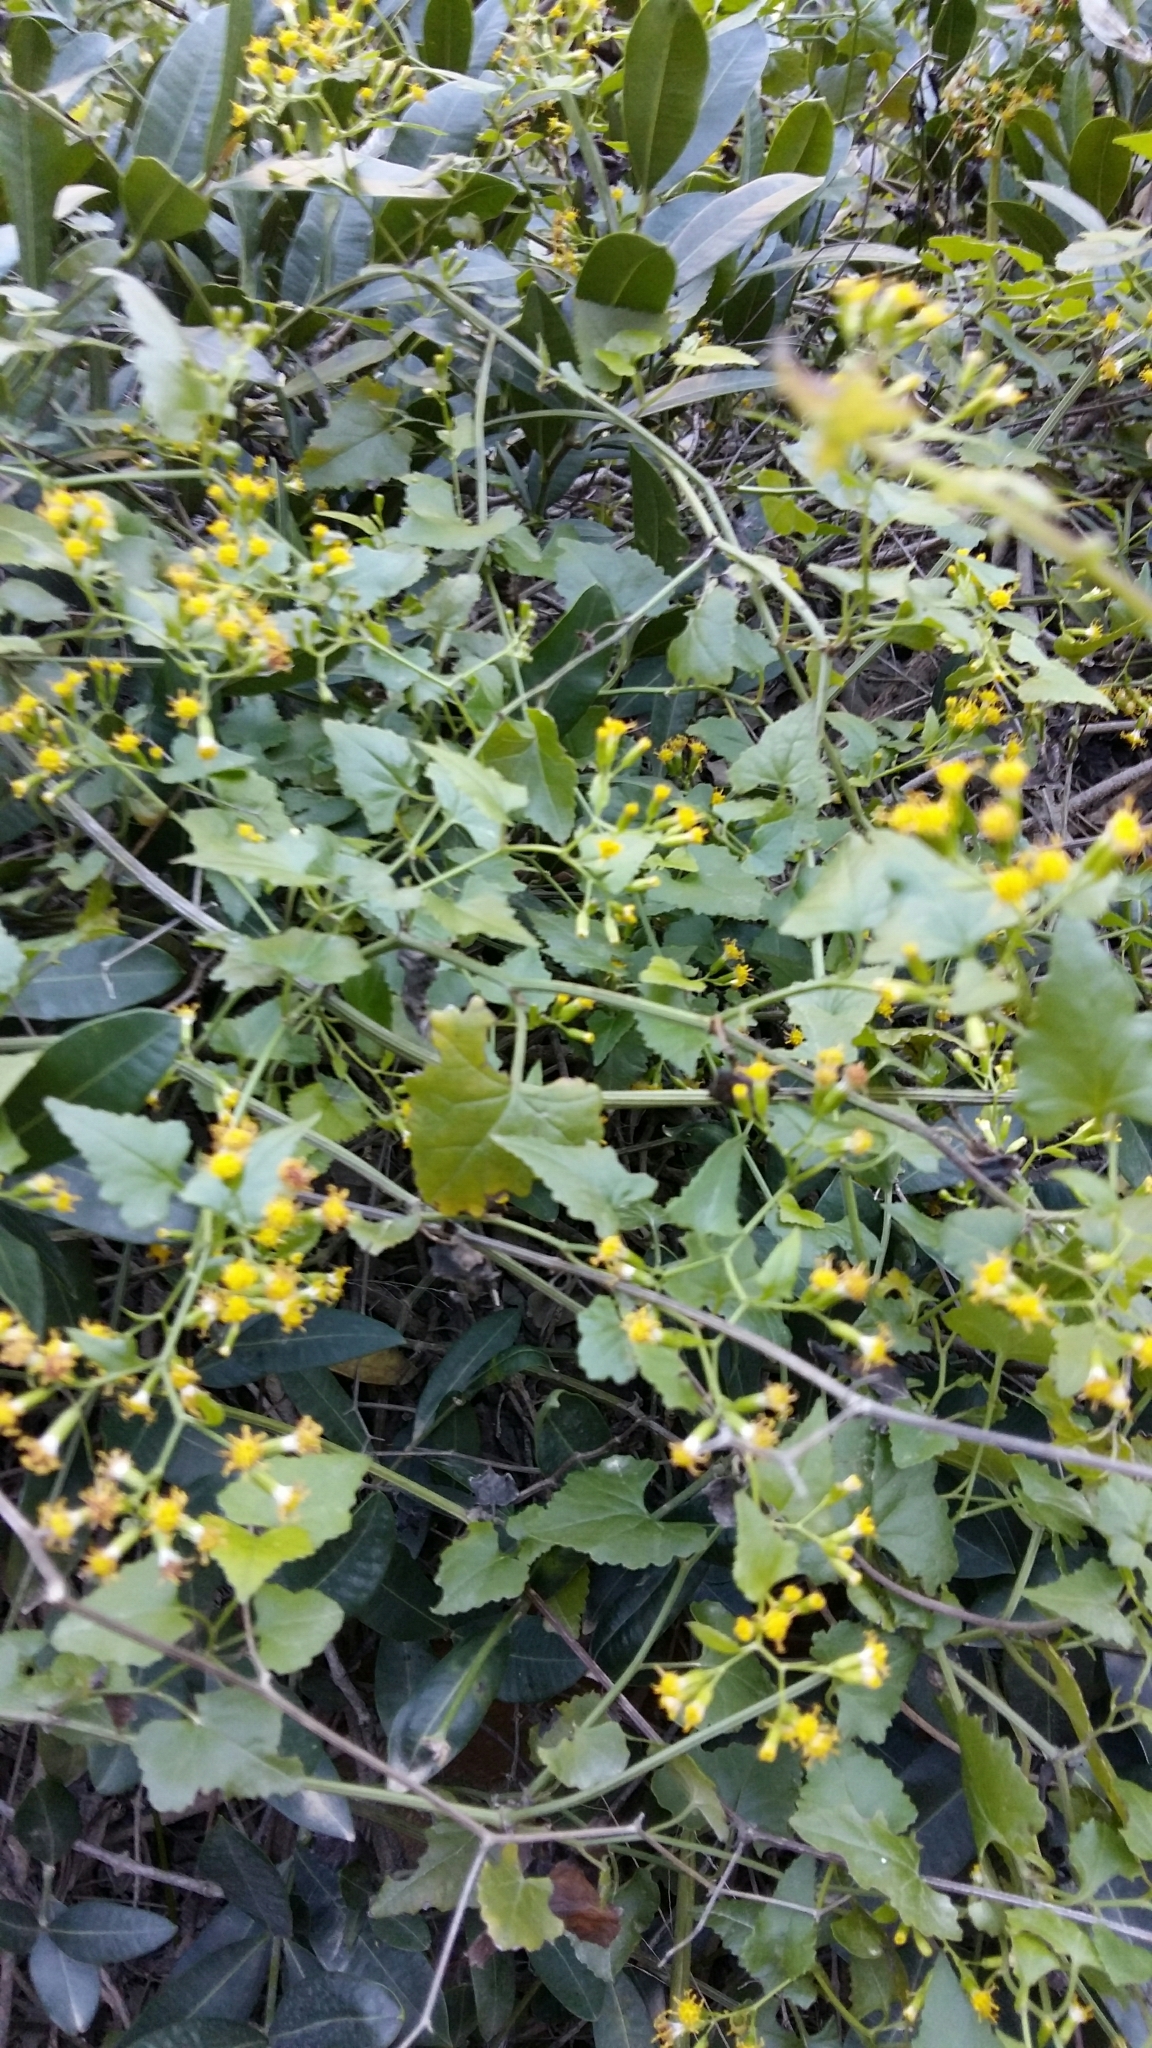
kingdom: Plantae
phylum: Tracheophyta
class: Magnoliopsida
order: Asterales
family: Asteraceae
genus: Senecio
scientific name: Senecio deltoideus
